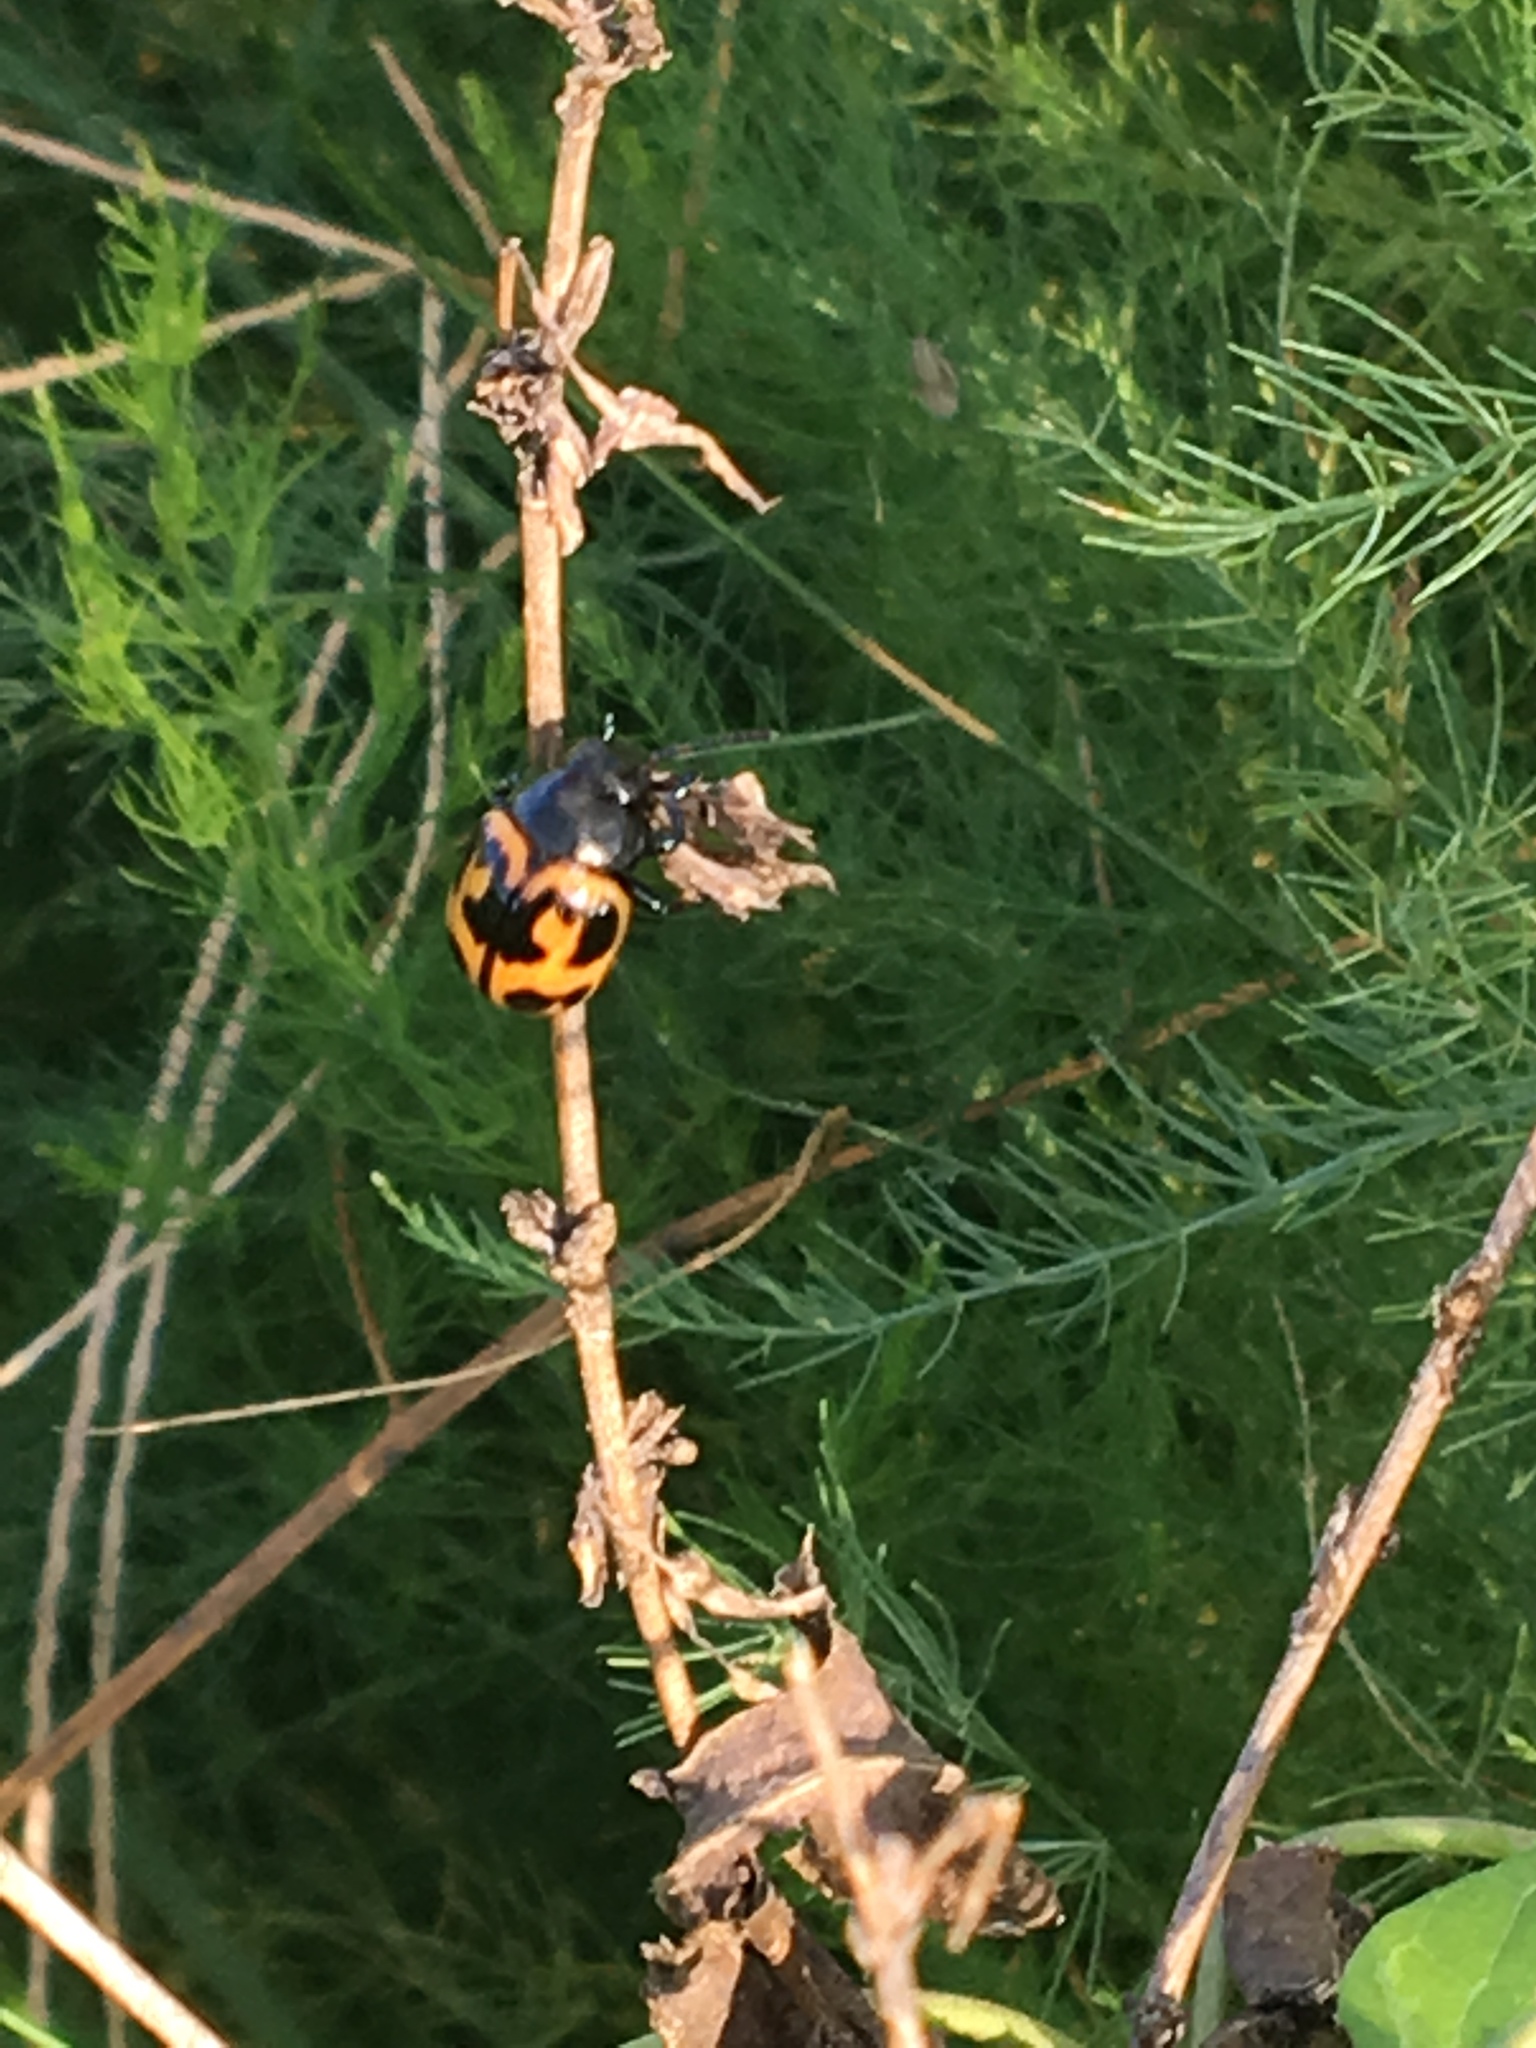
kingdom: Animalia
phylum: Arthropoda
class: Insecta
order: Coleoptera
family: Chrysomelidae
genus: Labidomera
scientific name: Labidomera clivicollis
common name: Swamp milkweed leaf beetle
